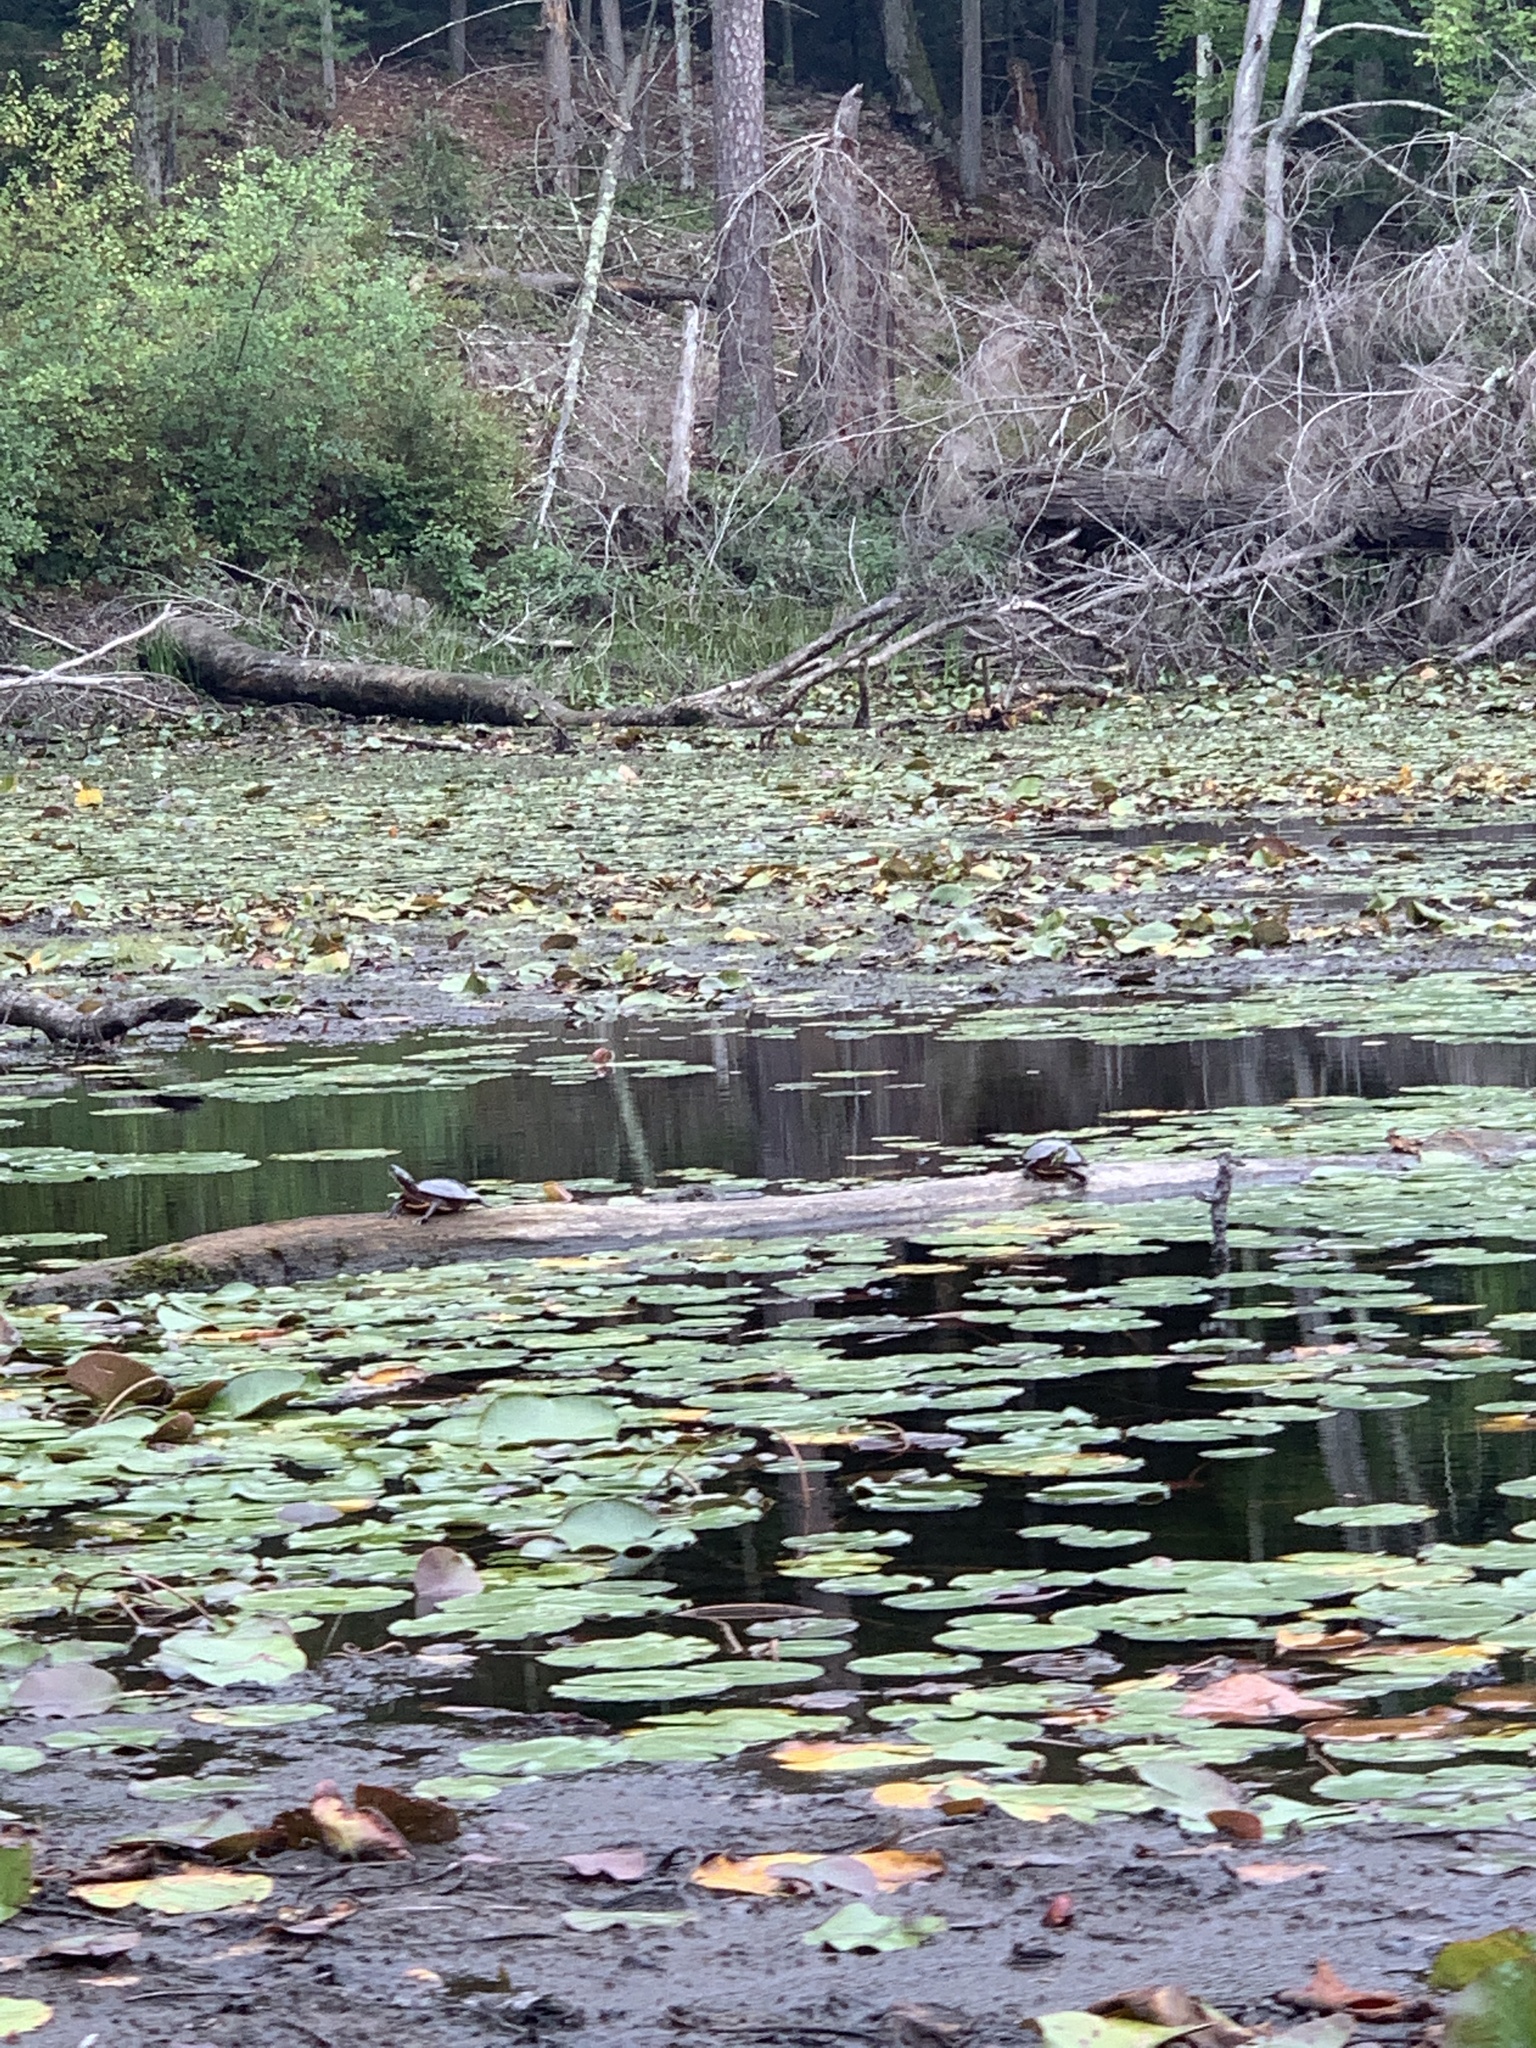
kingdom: Animalia
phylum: Chordata
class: Testudines
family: Emydidae
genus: Chrysemys
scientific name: Chrysemys picta
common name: Painted turtle
